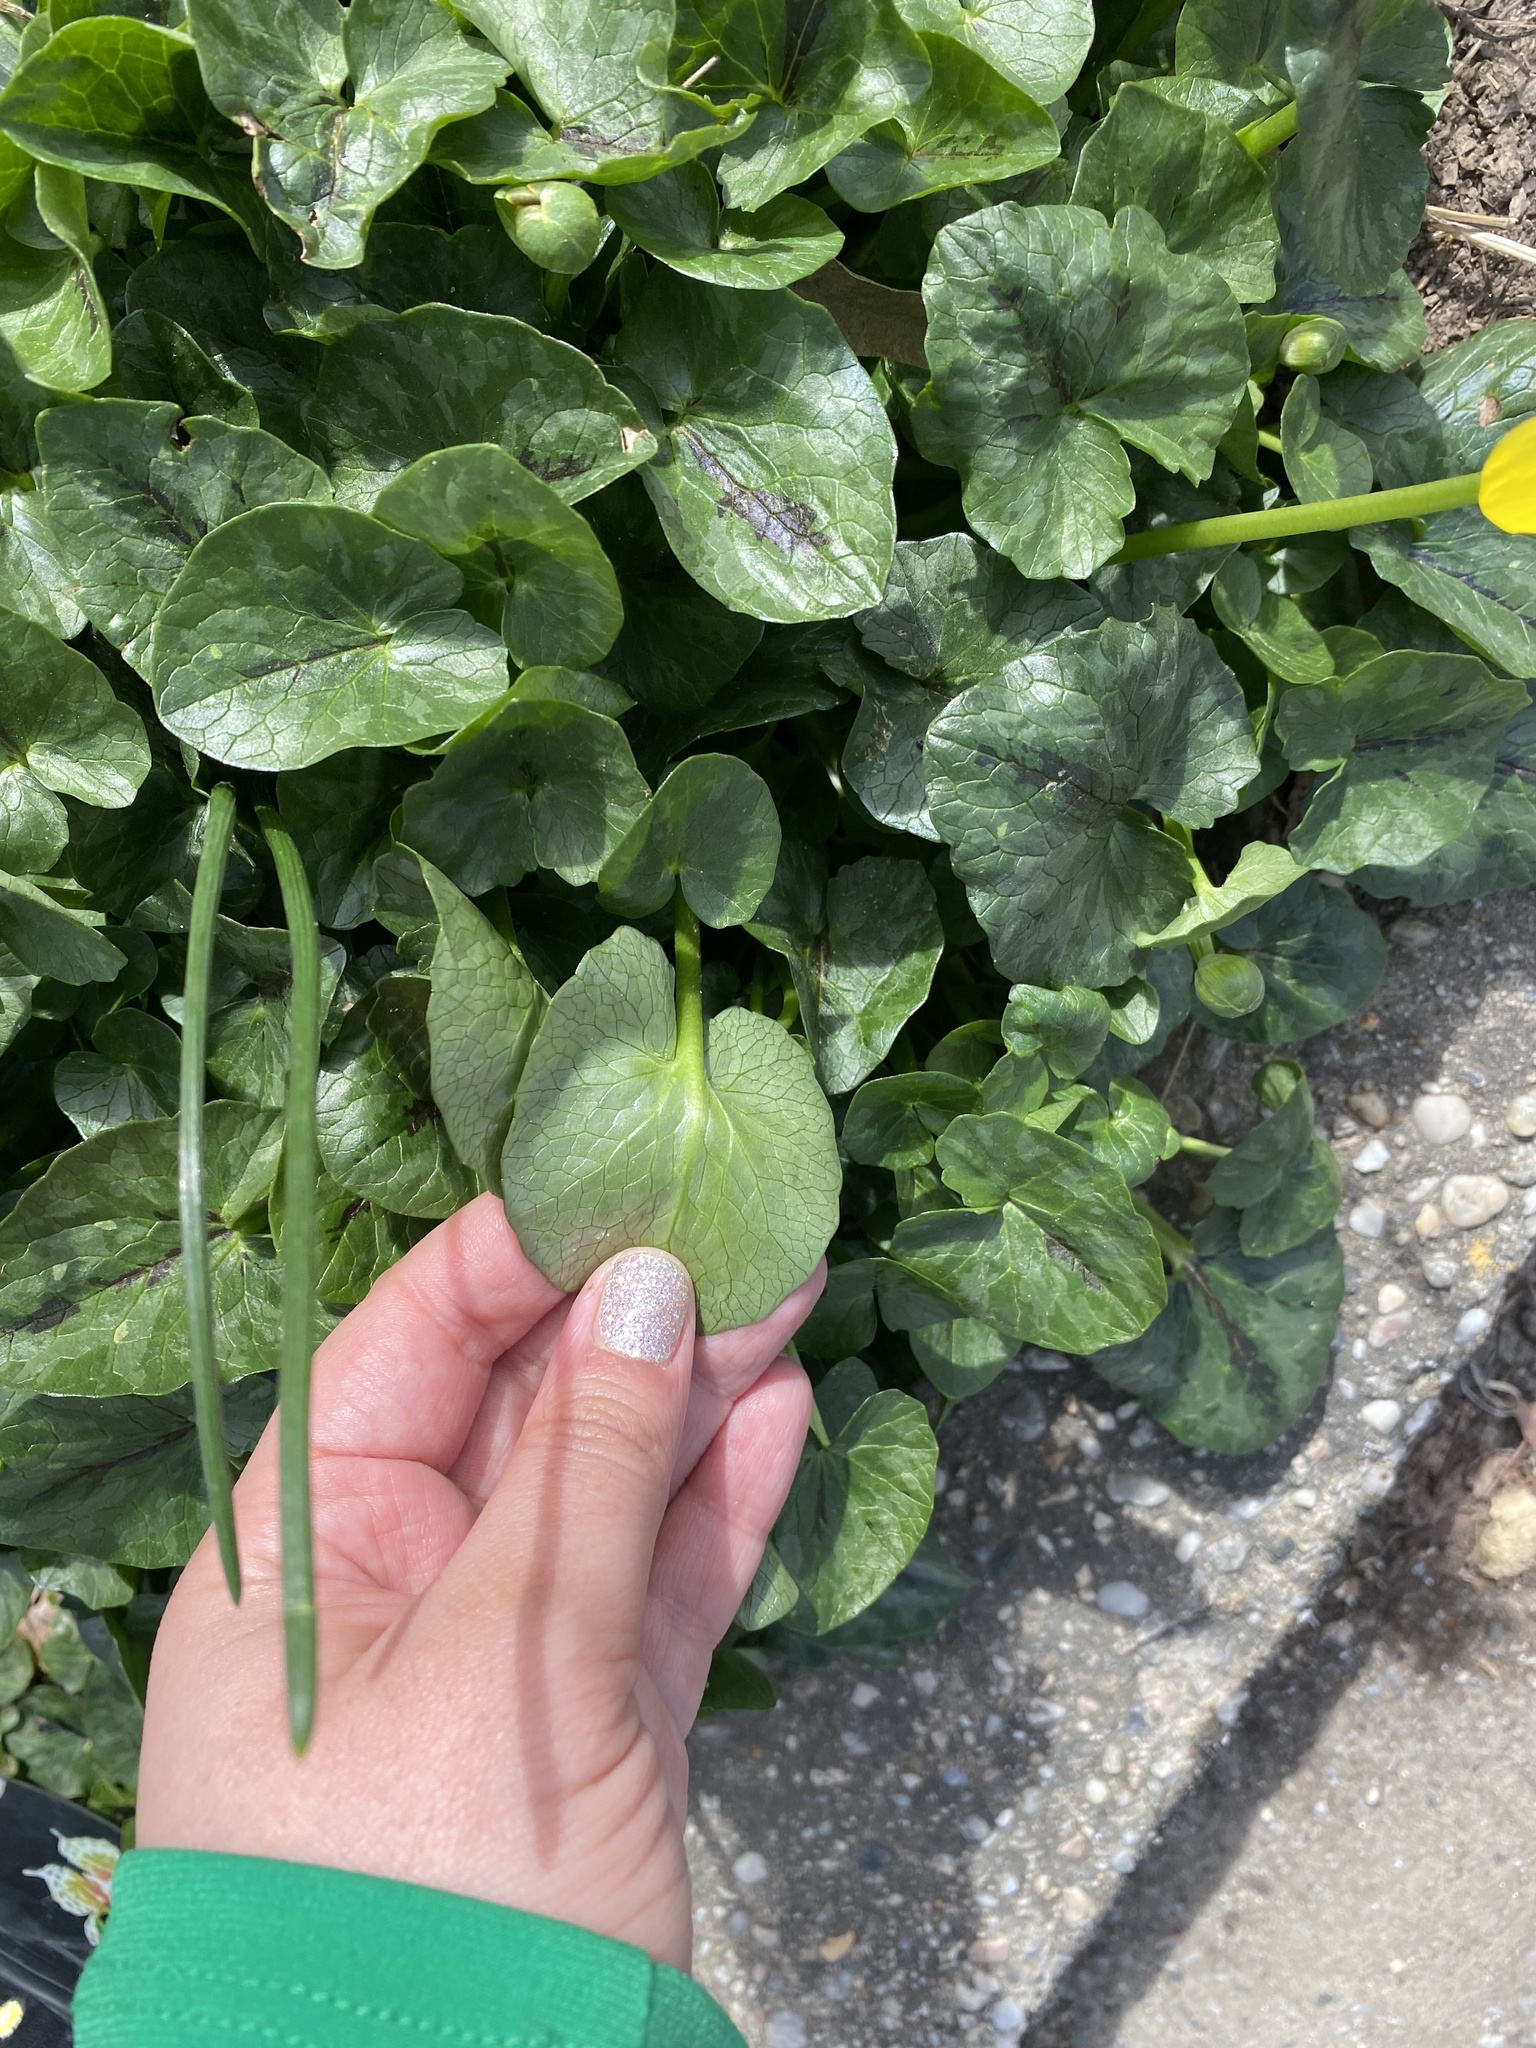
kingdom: Plantae
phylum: Tracheophyta
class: Magnoliopsida
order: Ranunculales
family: Ranunculaceae
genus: Ficaria
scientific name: Ficaria verna
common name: Lesser celandine
